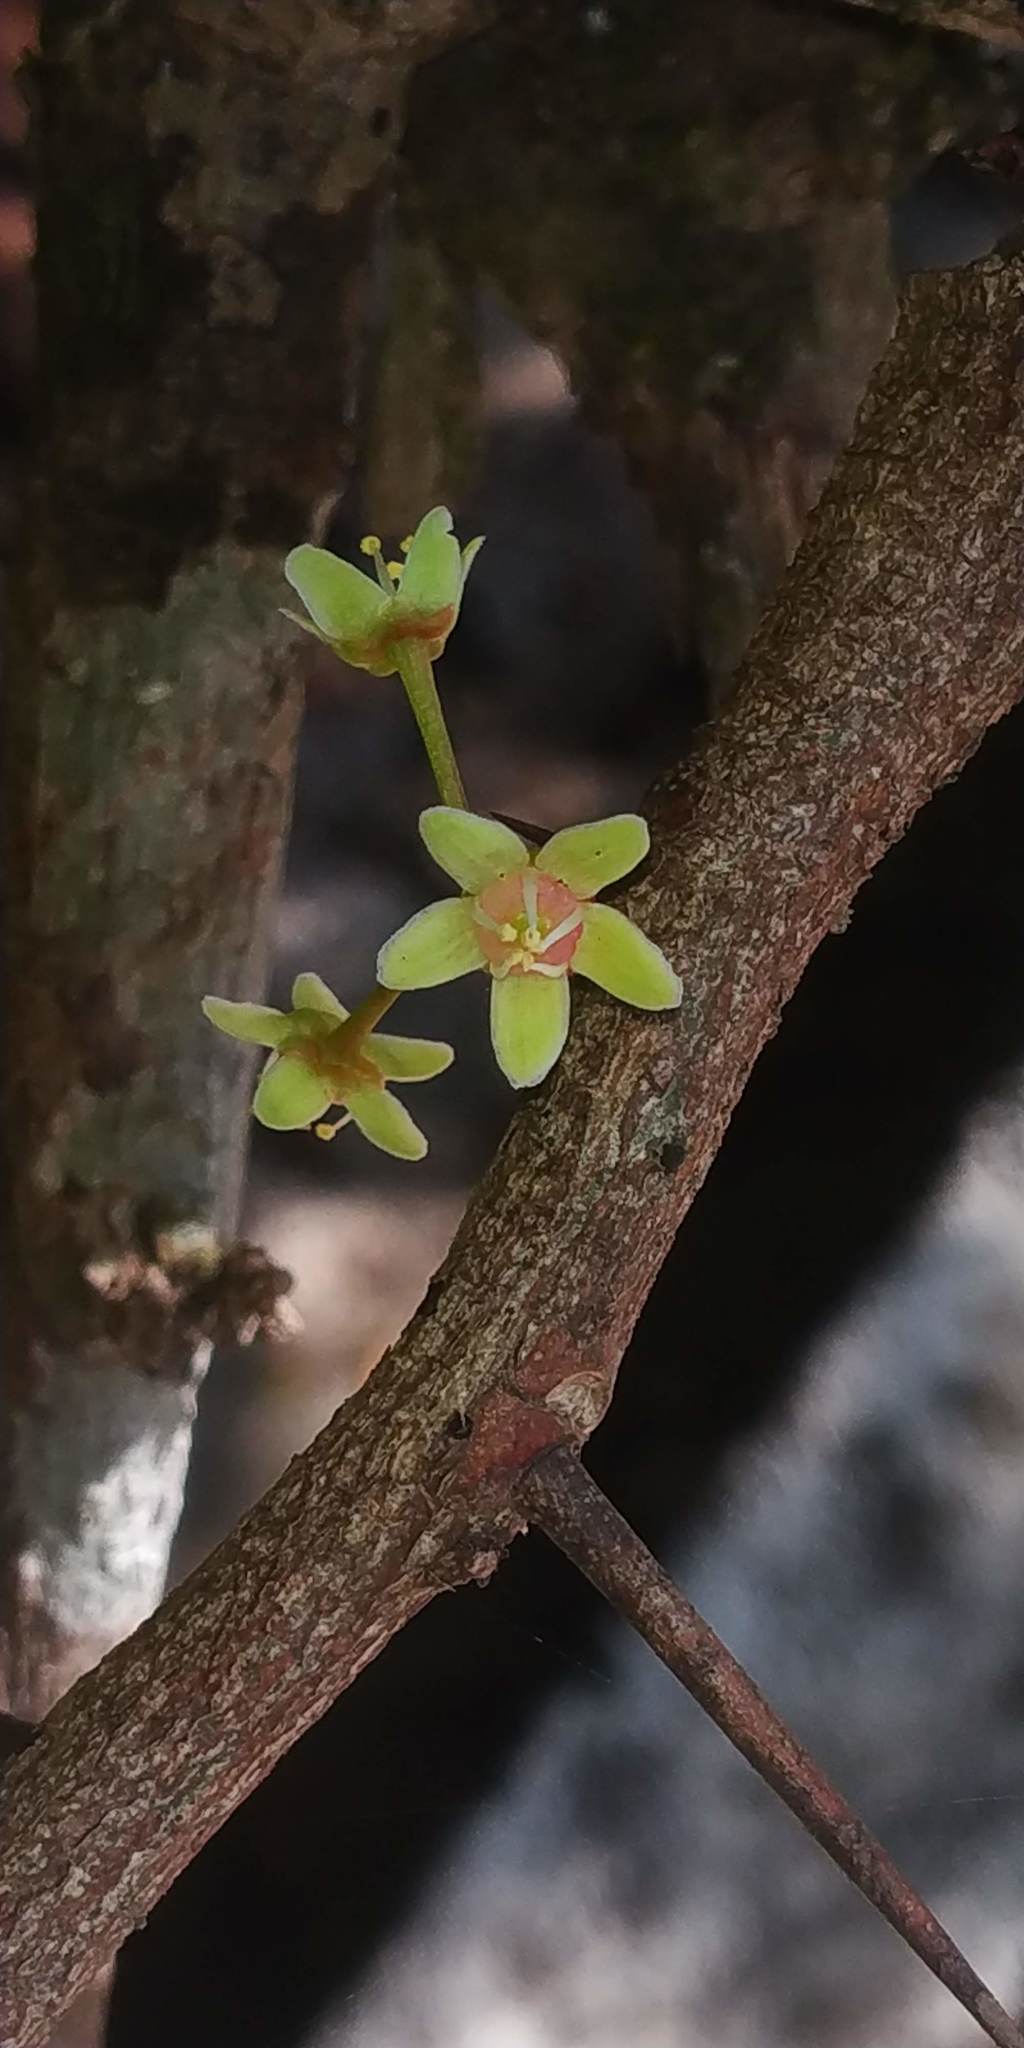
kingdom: Plantae
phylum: Tracheophyta
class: Magnoliopsida
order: Celastrales
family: Celastraceae
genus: Gymnosporia
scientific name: Gymnosporia rothiana
